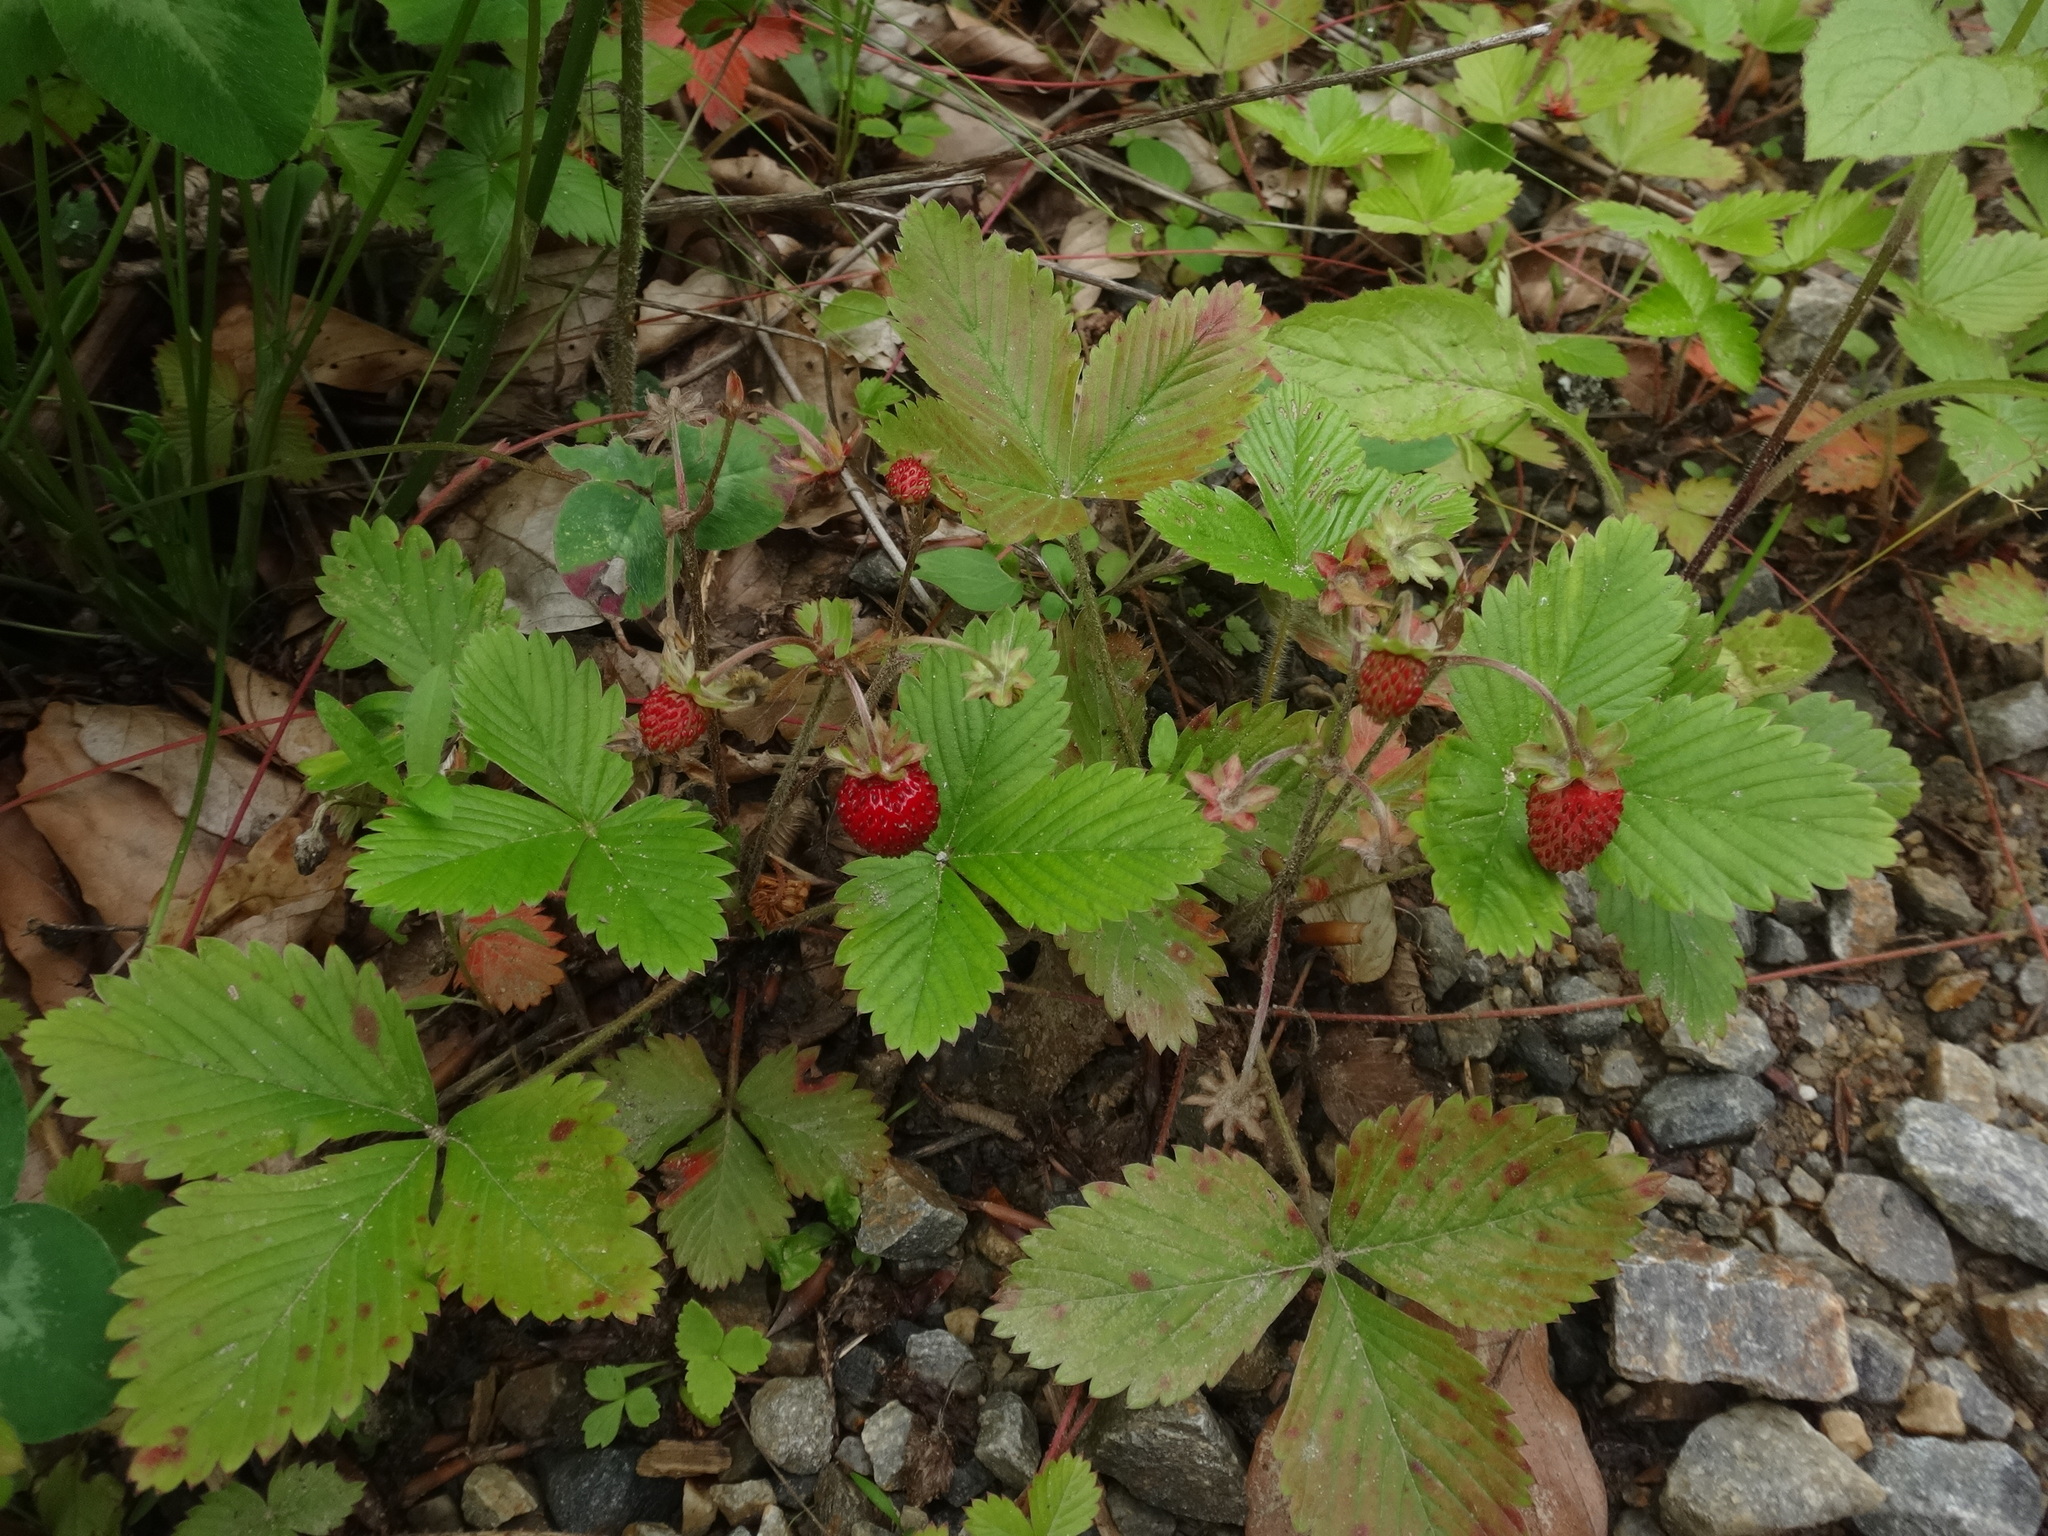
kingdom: Plantae
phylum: Tracheophyta
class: Magnoliopsida
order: Rosales
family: Rosaceae
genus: Fragaria
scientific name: Fragaria vesca
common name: Wild strawberry
